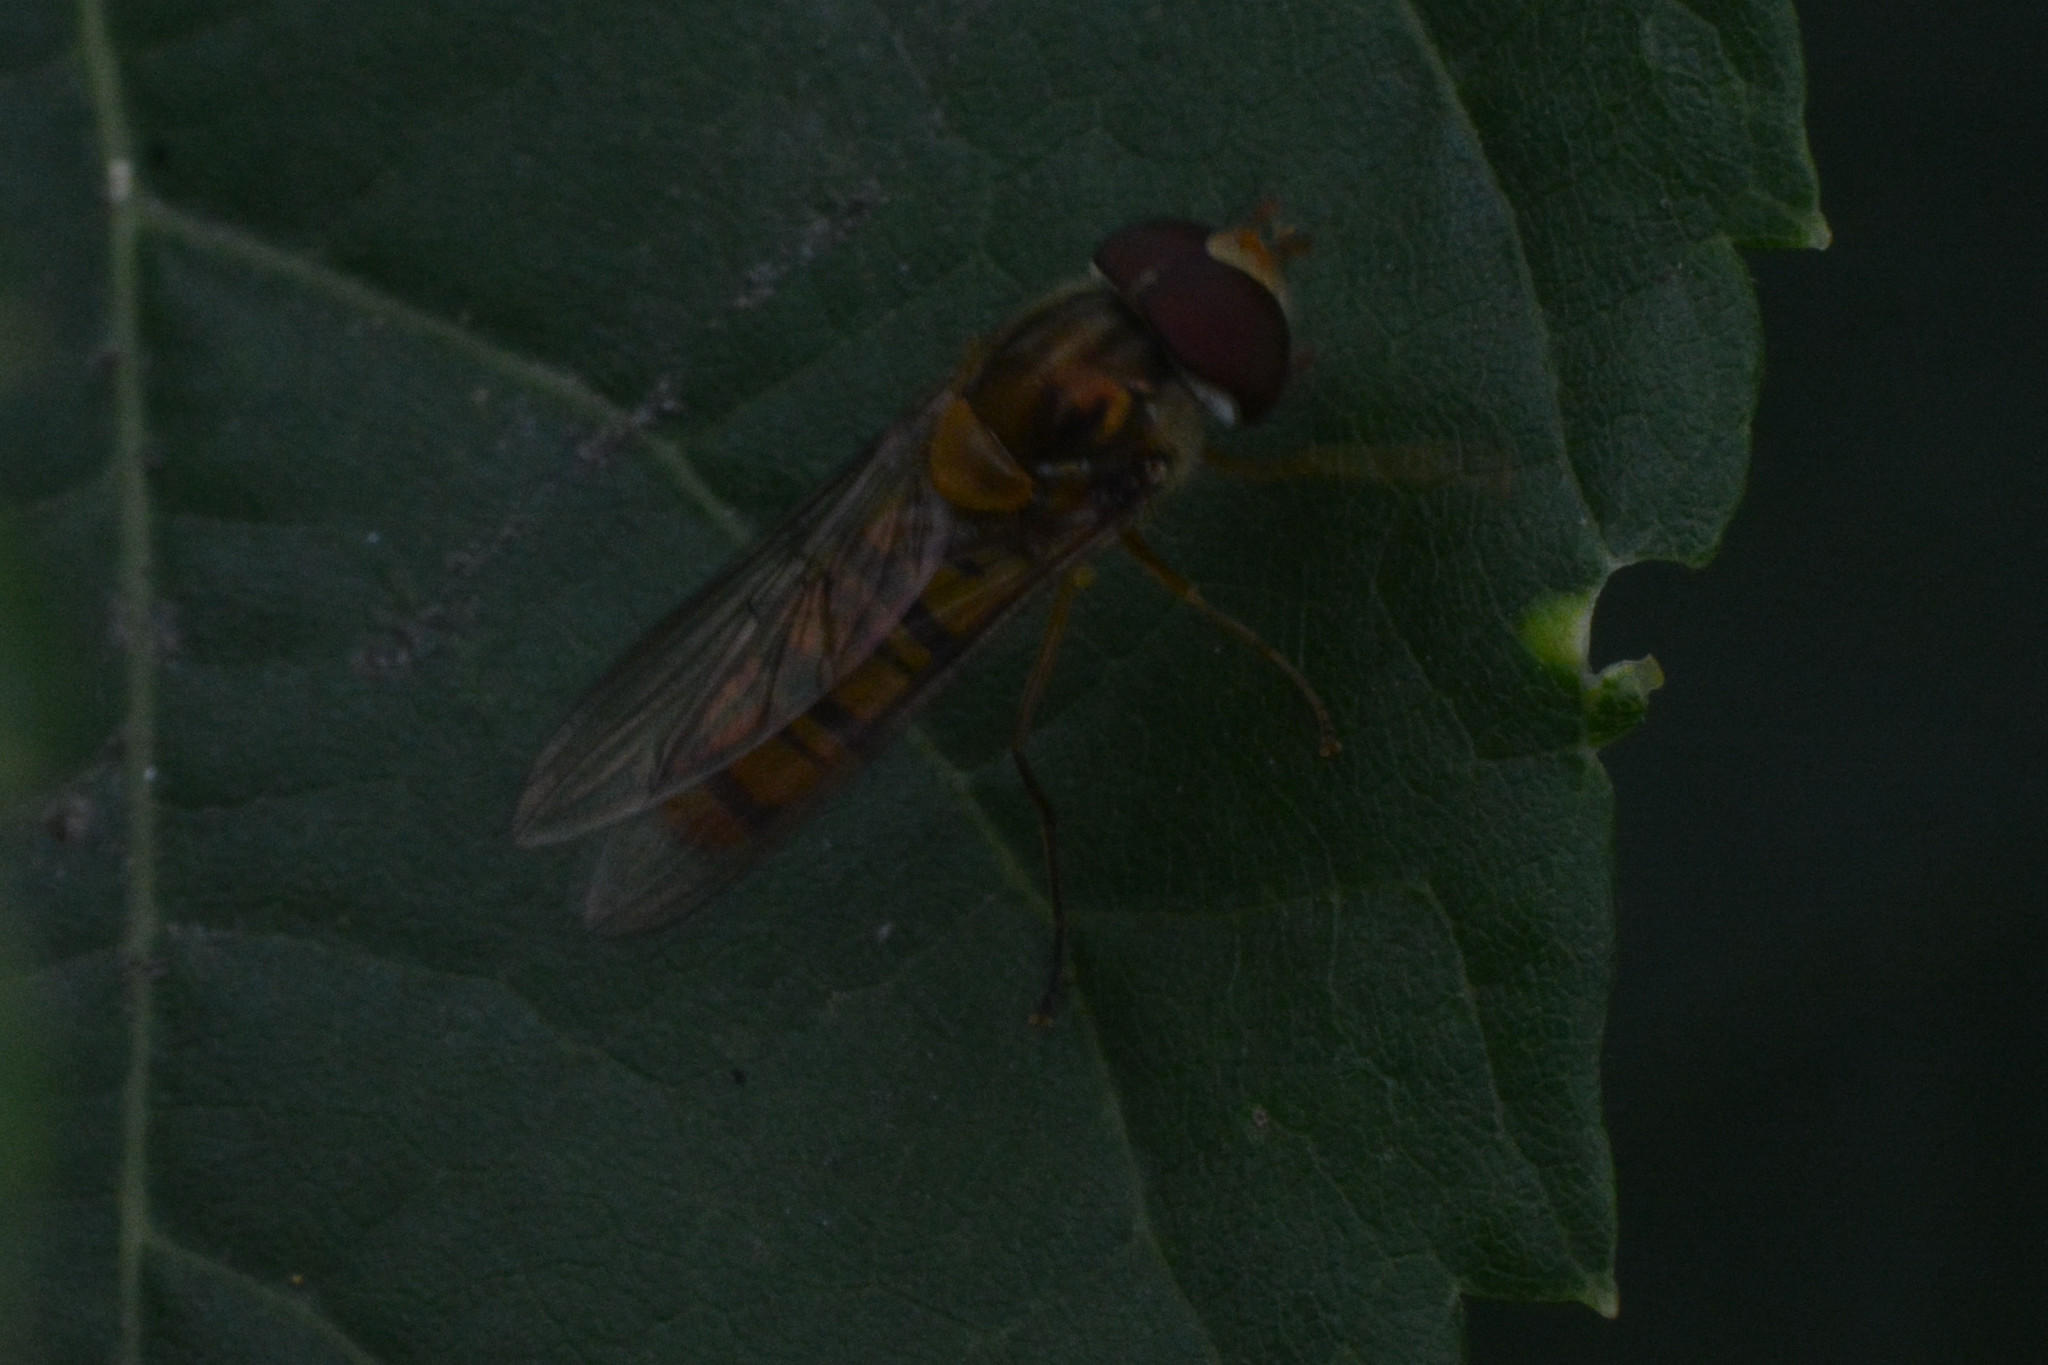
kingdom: Animalia
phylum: Arthropoda
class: Insecta
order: Diptera
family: Syrphidae
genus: Episyrphus
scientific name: Episyrphus balteatus
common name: Marmalade hoverfly
